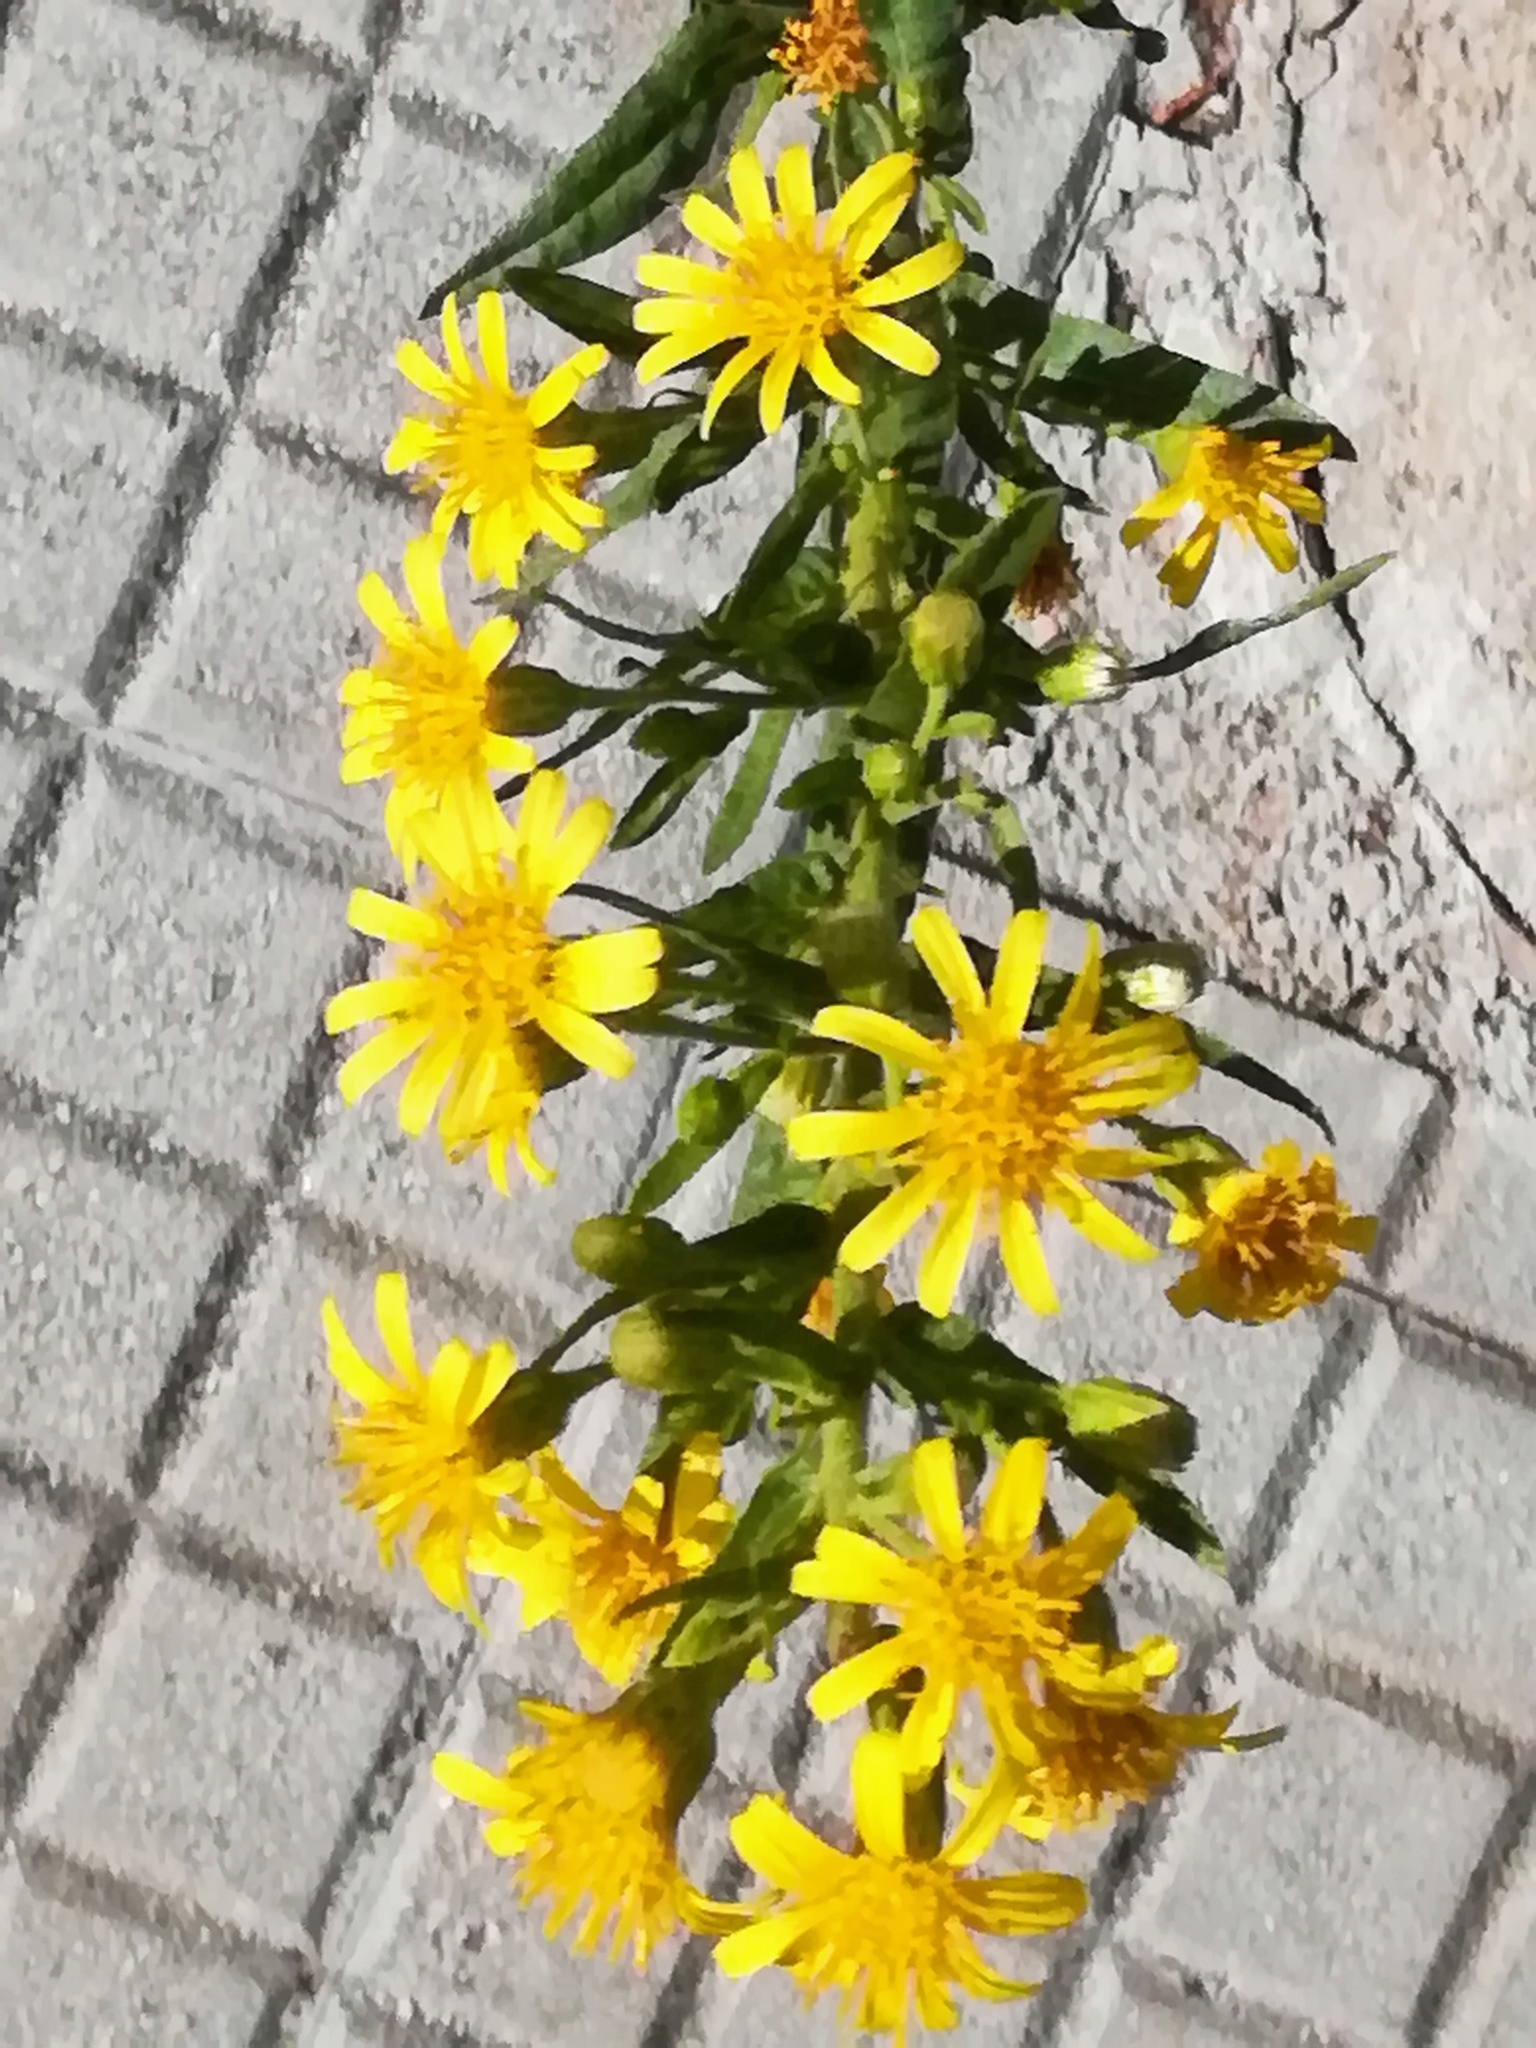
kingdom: Plantae
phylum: Tracheophyta
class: Magnoliopsida
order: Asterales
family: Asteraceae
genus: Dittrichia
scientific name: Dittrichia viscosa
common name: Woody fleabane
